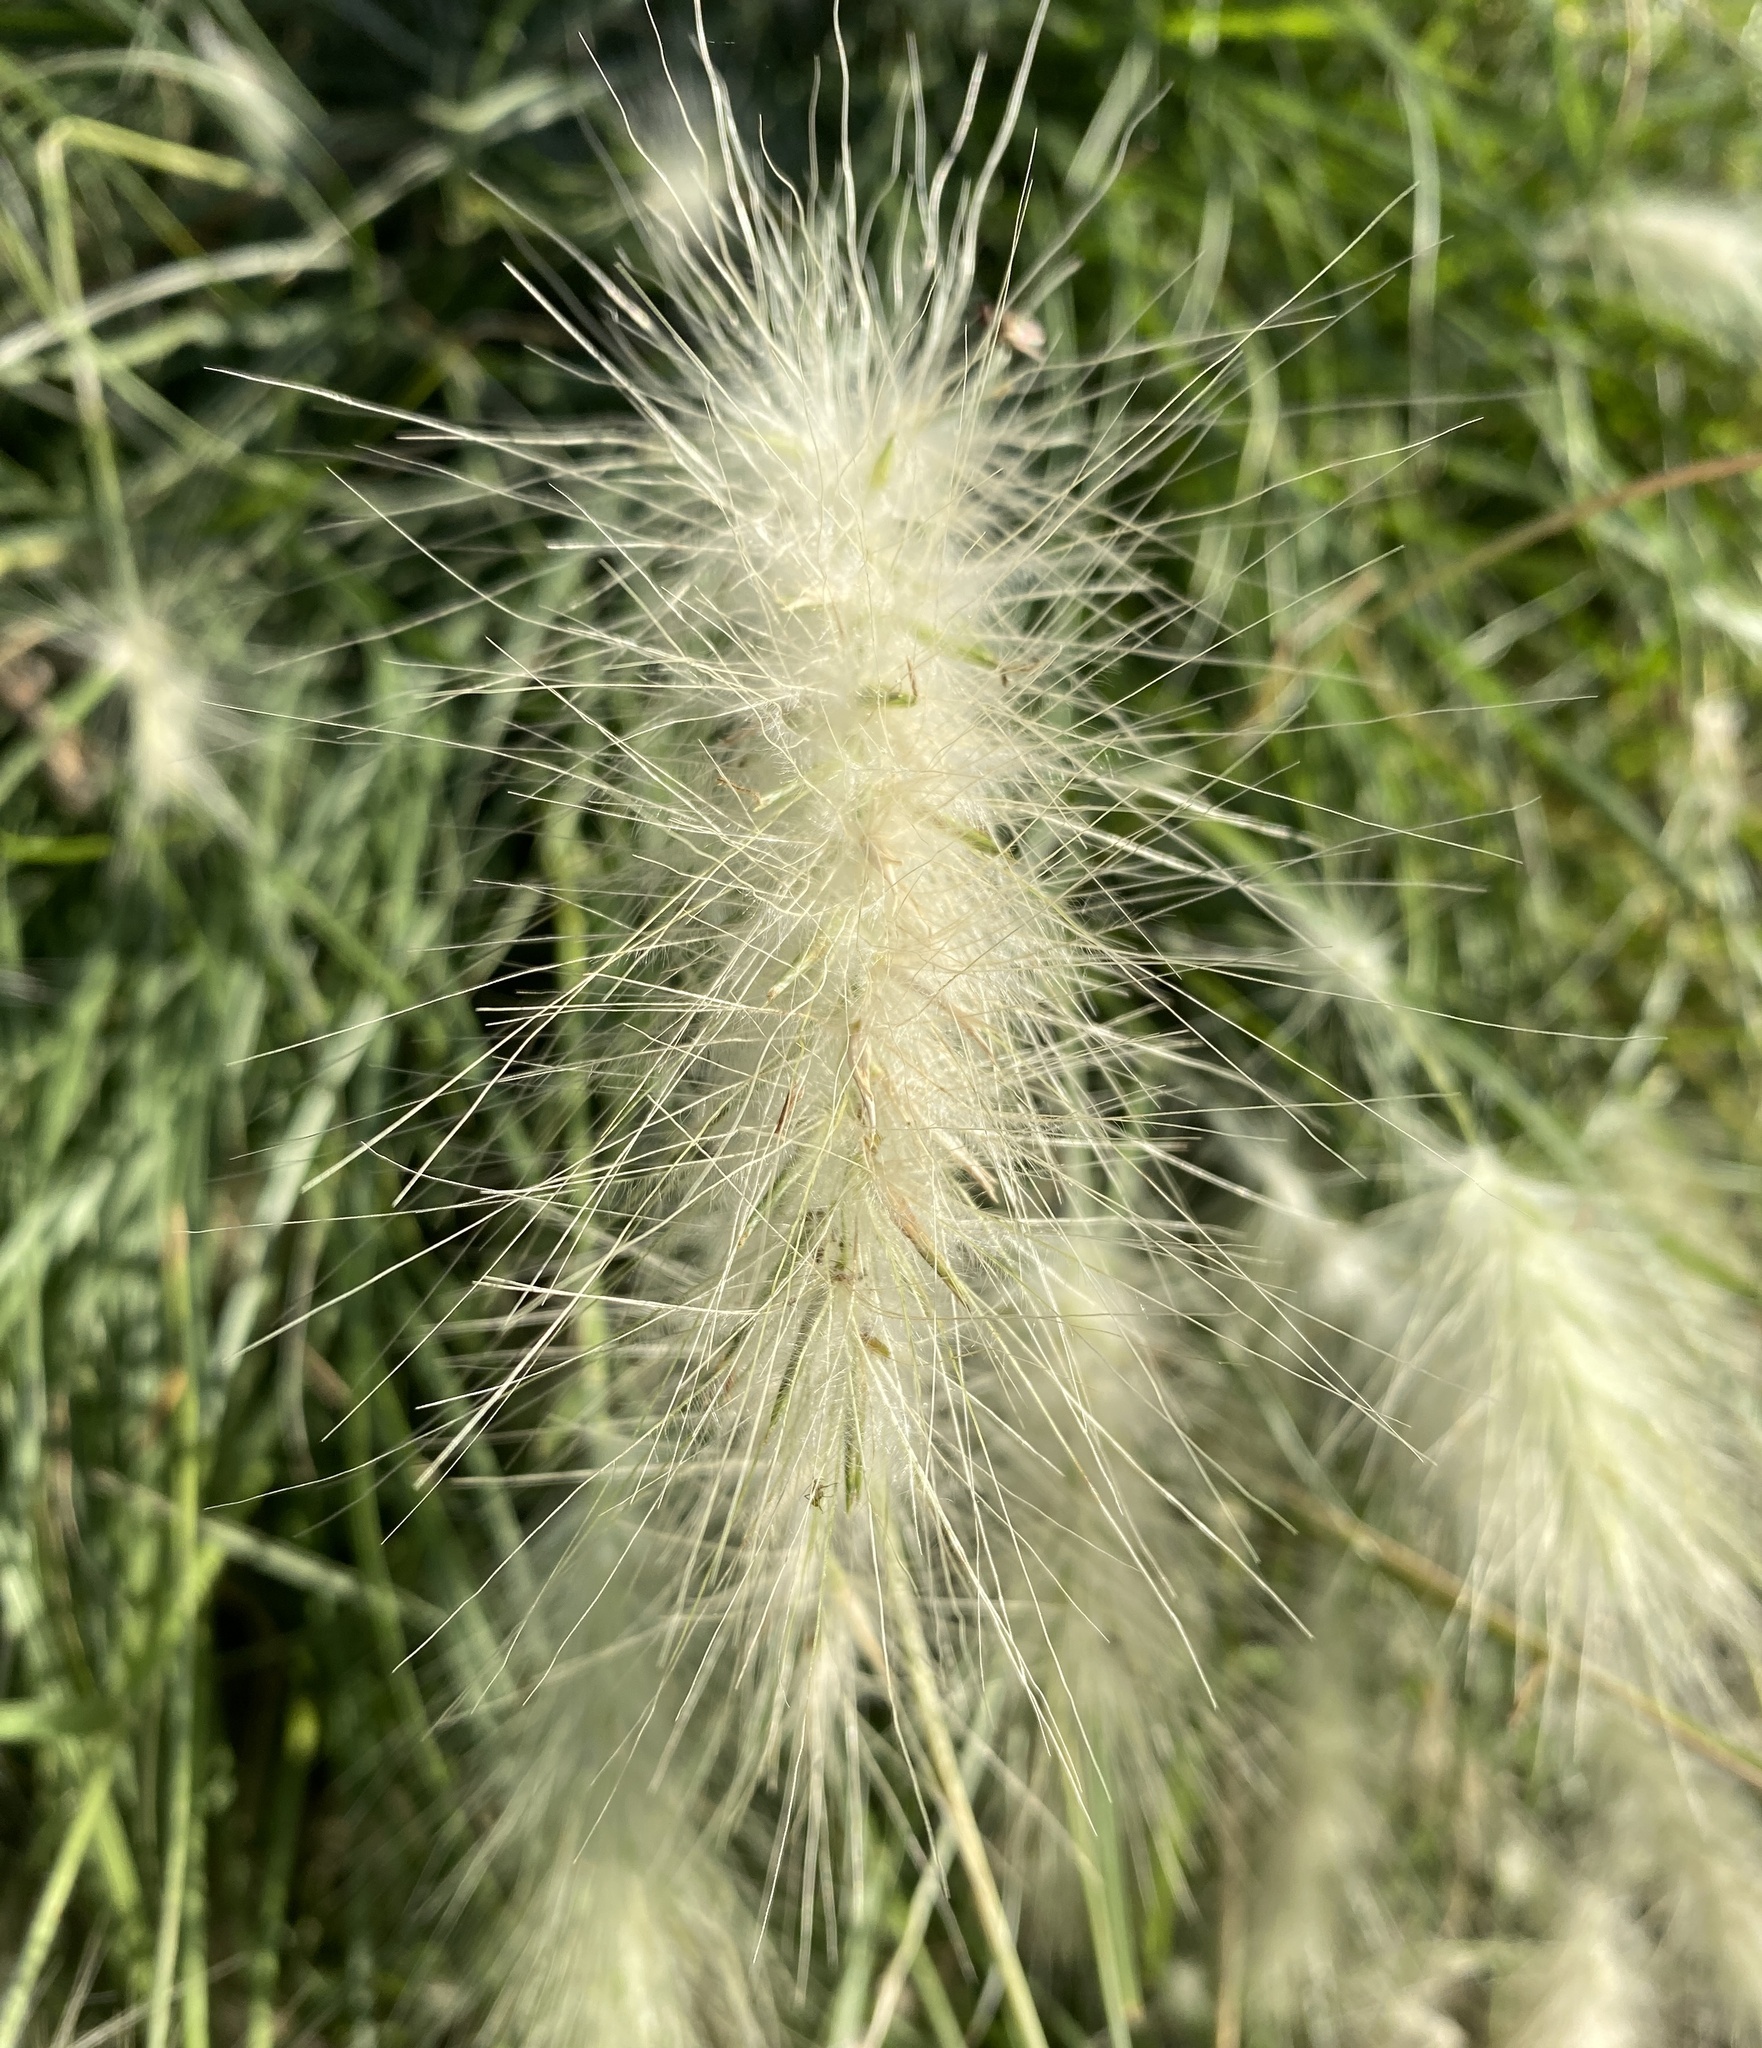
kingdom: Plantae
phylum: Tracheophyta
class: Liliopsida
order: Poales
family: Poaceae
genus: Cenchrus
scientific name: Cenchrus longisetus
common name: Feathertop
